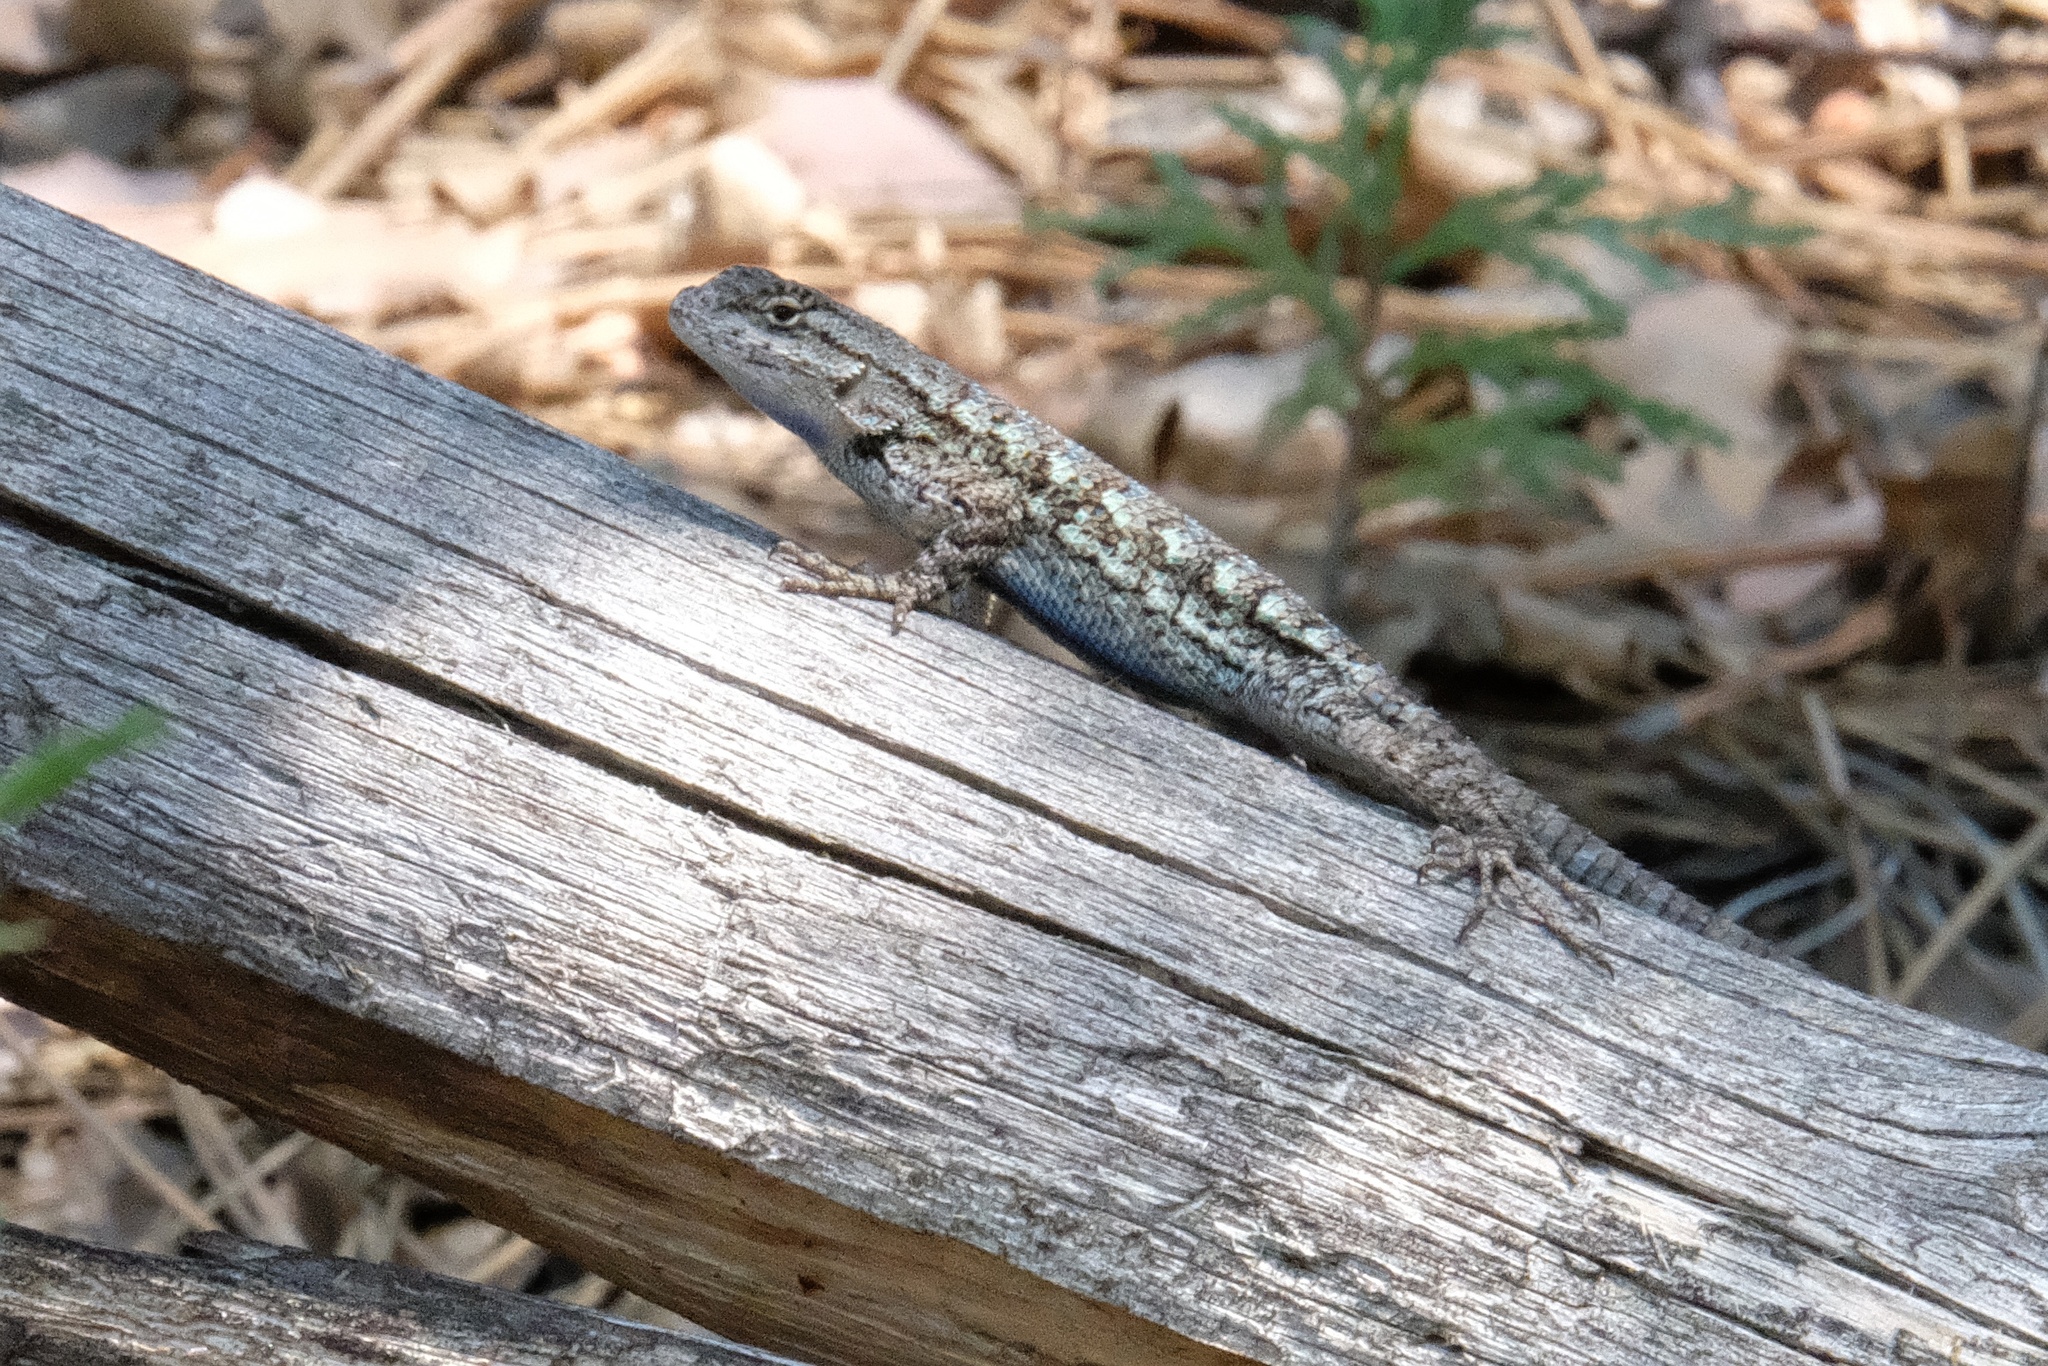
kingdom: Animalia
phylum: Chordata
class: Squamata
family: Phrynosomatidae
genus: Sceloporus
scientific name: Sceloporus occidentalis
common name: Western fence lizard
